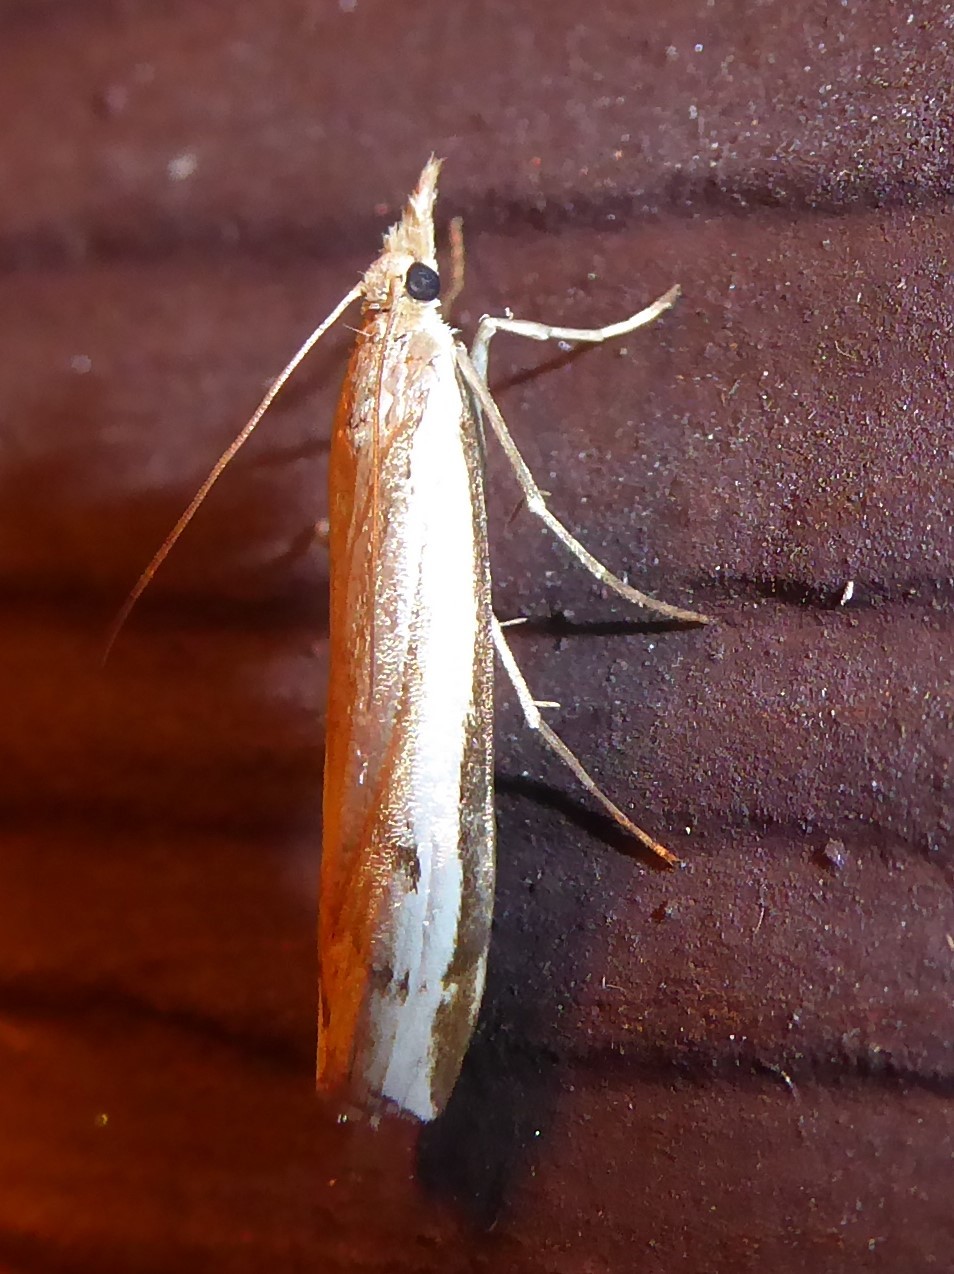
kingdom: Animalia
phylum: Arthropoda
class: Insecta
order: Lepidoptera
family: Crambidae
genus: Orocrambus
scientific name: Orocrambus flexuosellus
